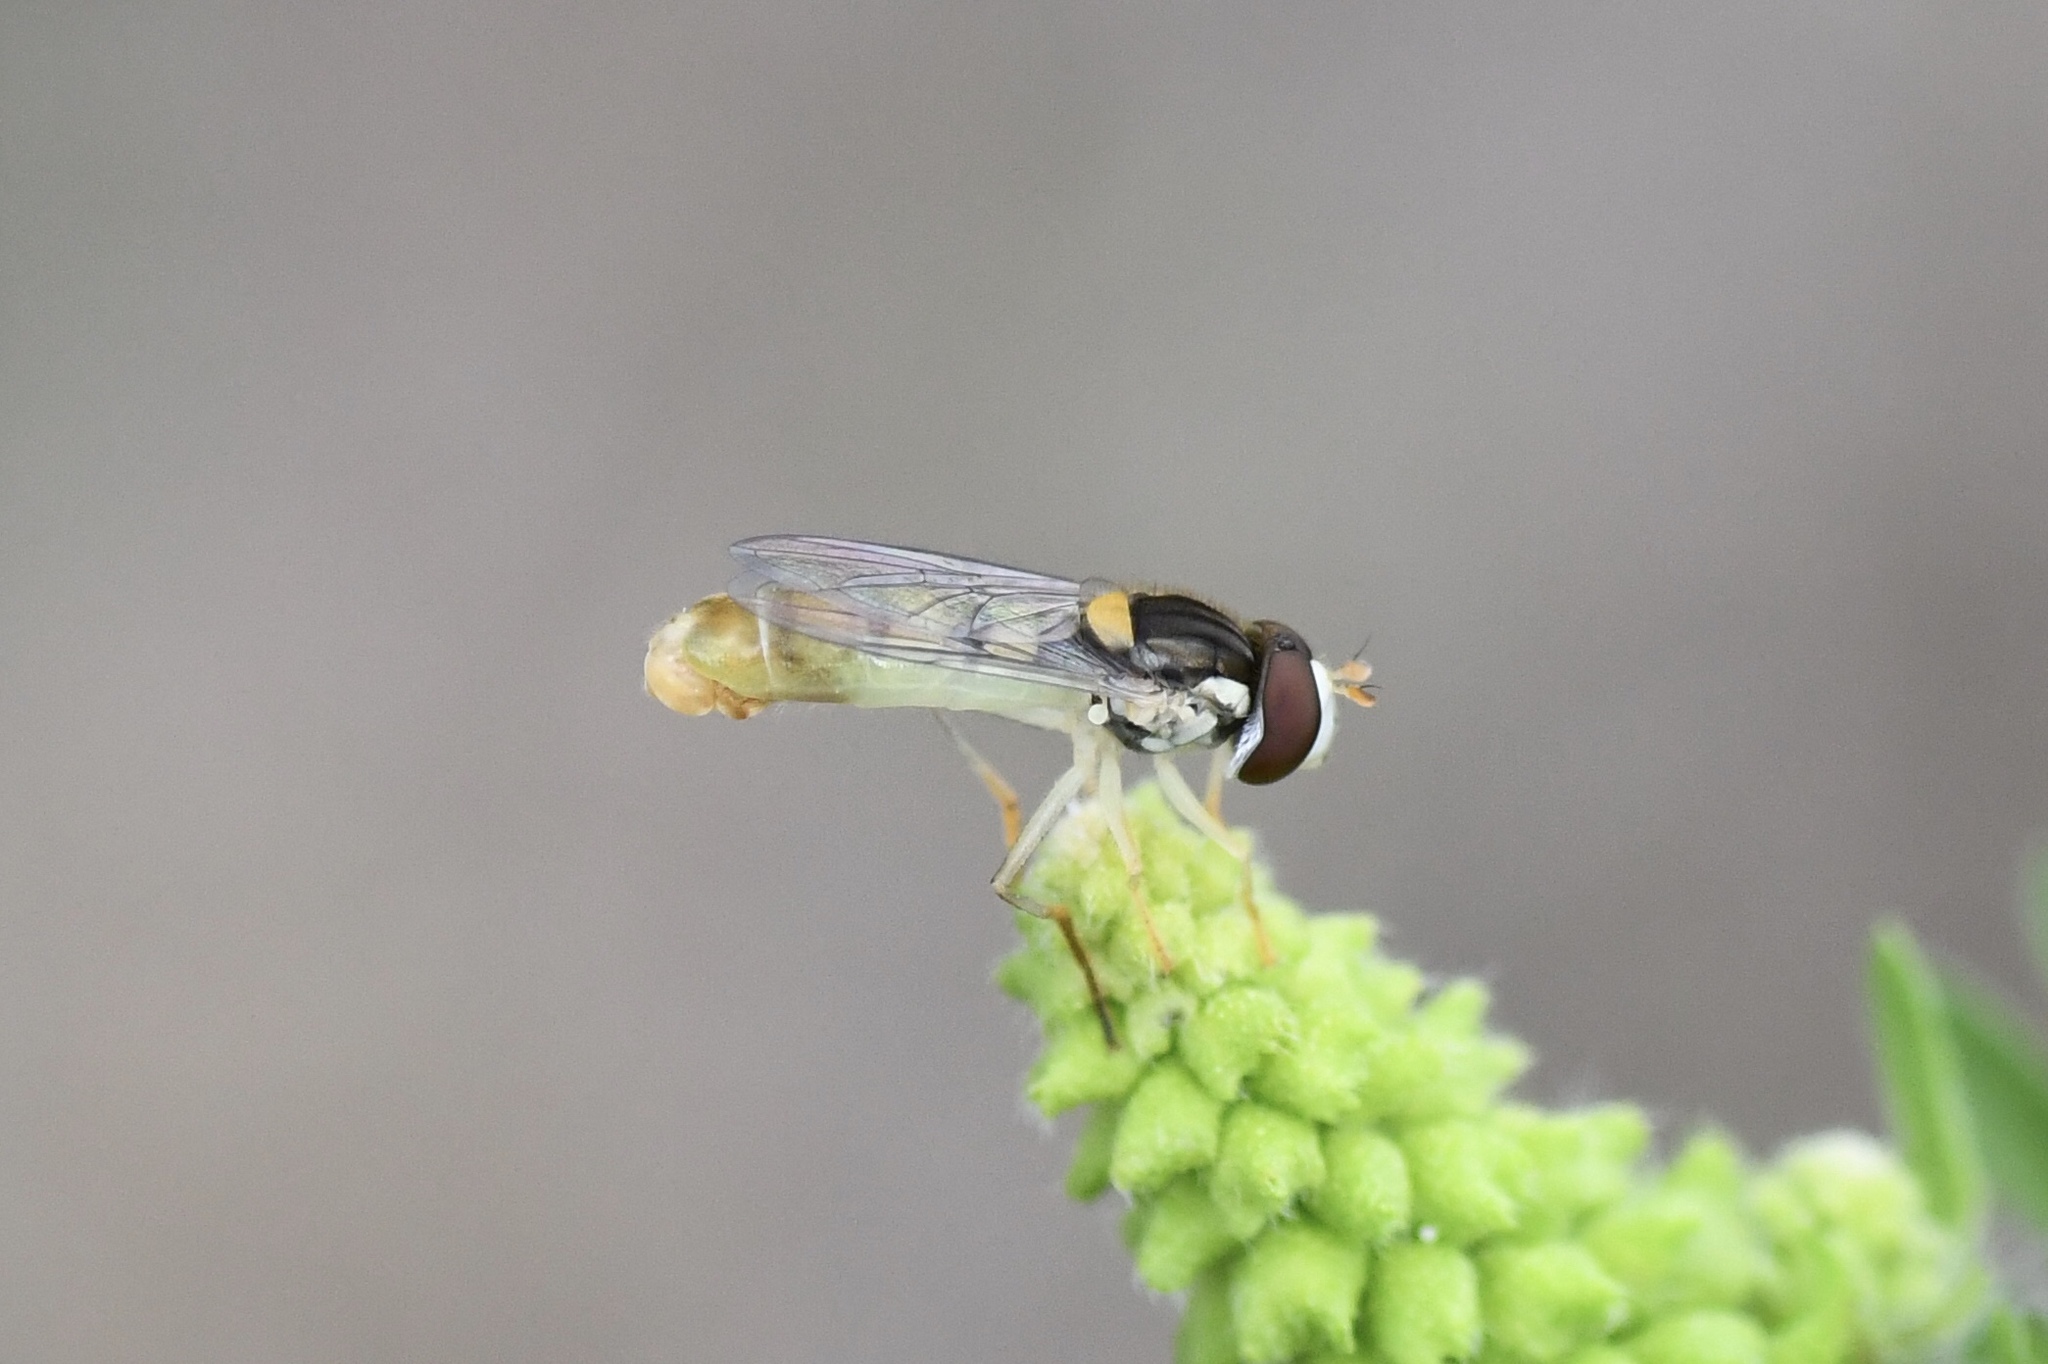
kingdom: Animalia
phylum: Arthropoda
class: Insecta
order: Diptera
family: Syrphidae
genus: Sphaerophoria
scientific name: Sphaerophoria contigua
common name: Tufted globetail
